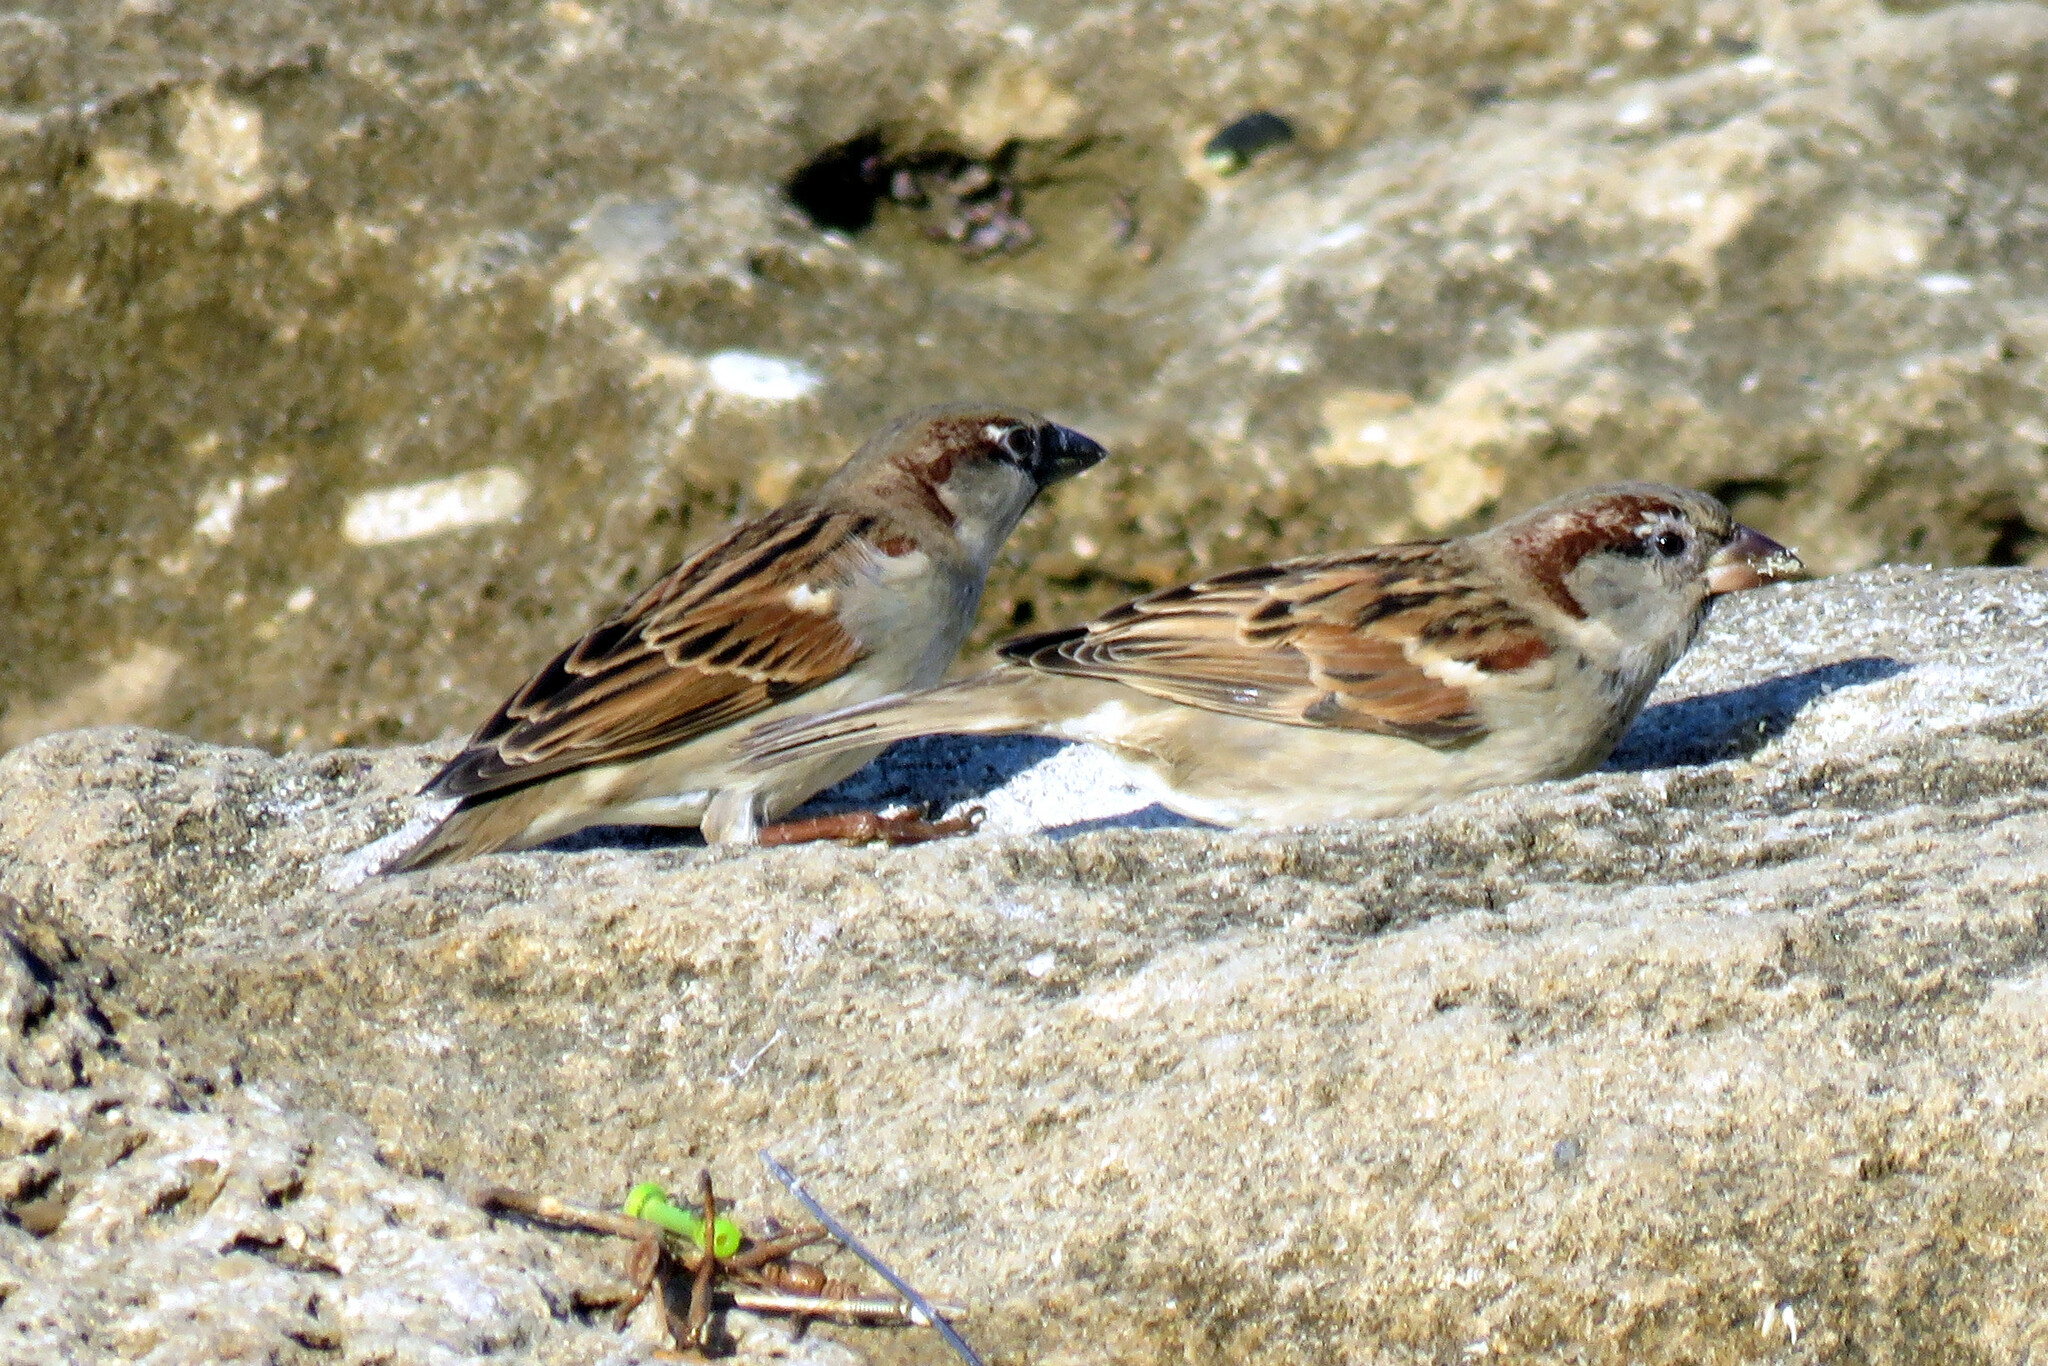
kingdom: Animalia
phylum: Chordata
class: Aves
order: Passeriformes
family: Passeridae
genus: Passer
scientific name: Passer domesticus
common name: House sparrow
